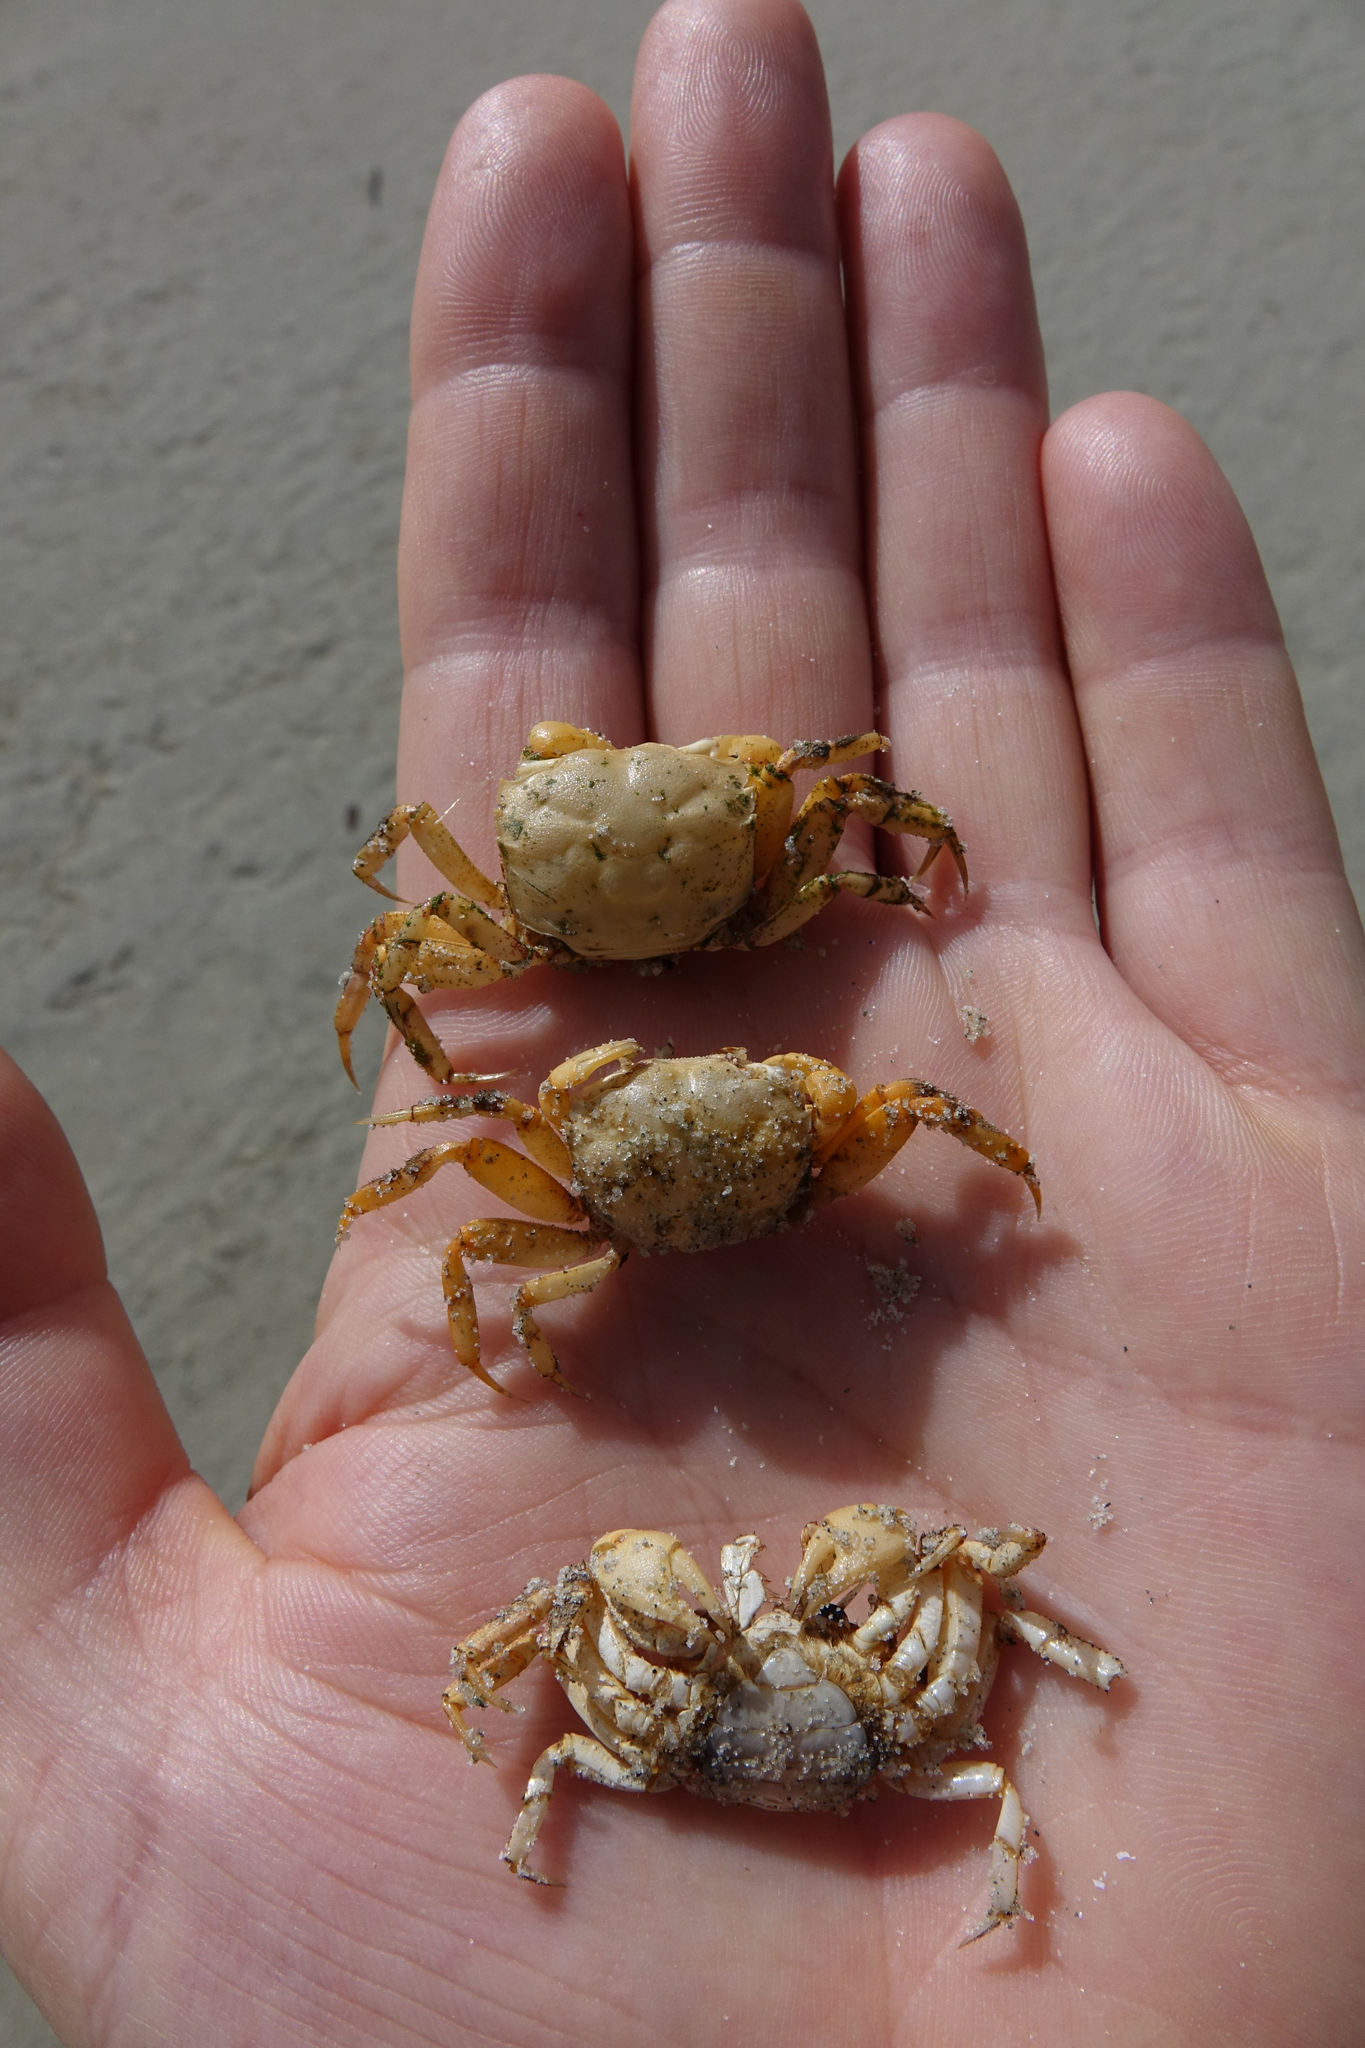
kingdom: Animalia
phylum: Arthropoda
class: Malacostraca
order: Decapoda
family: Varunidae
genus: Austrohelice
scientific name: Austrohelice crassa
